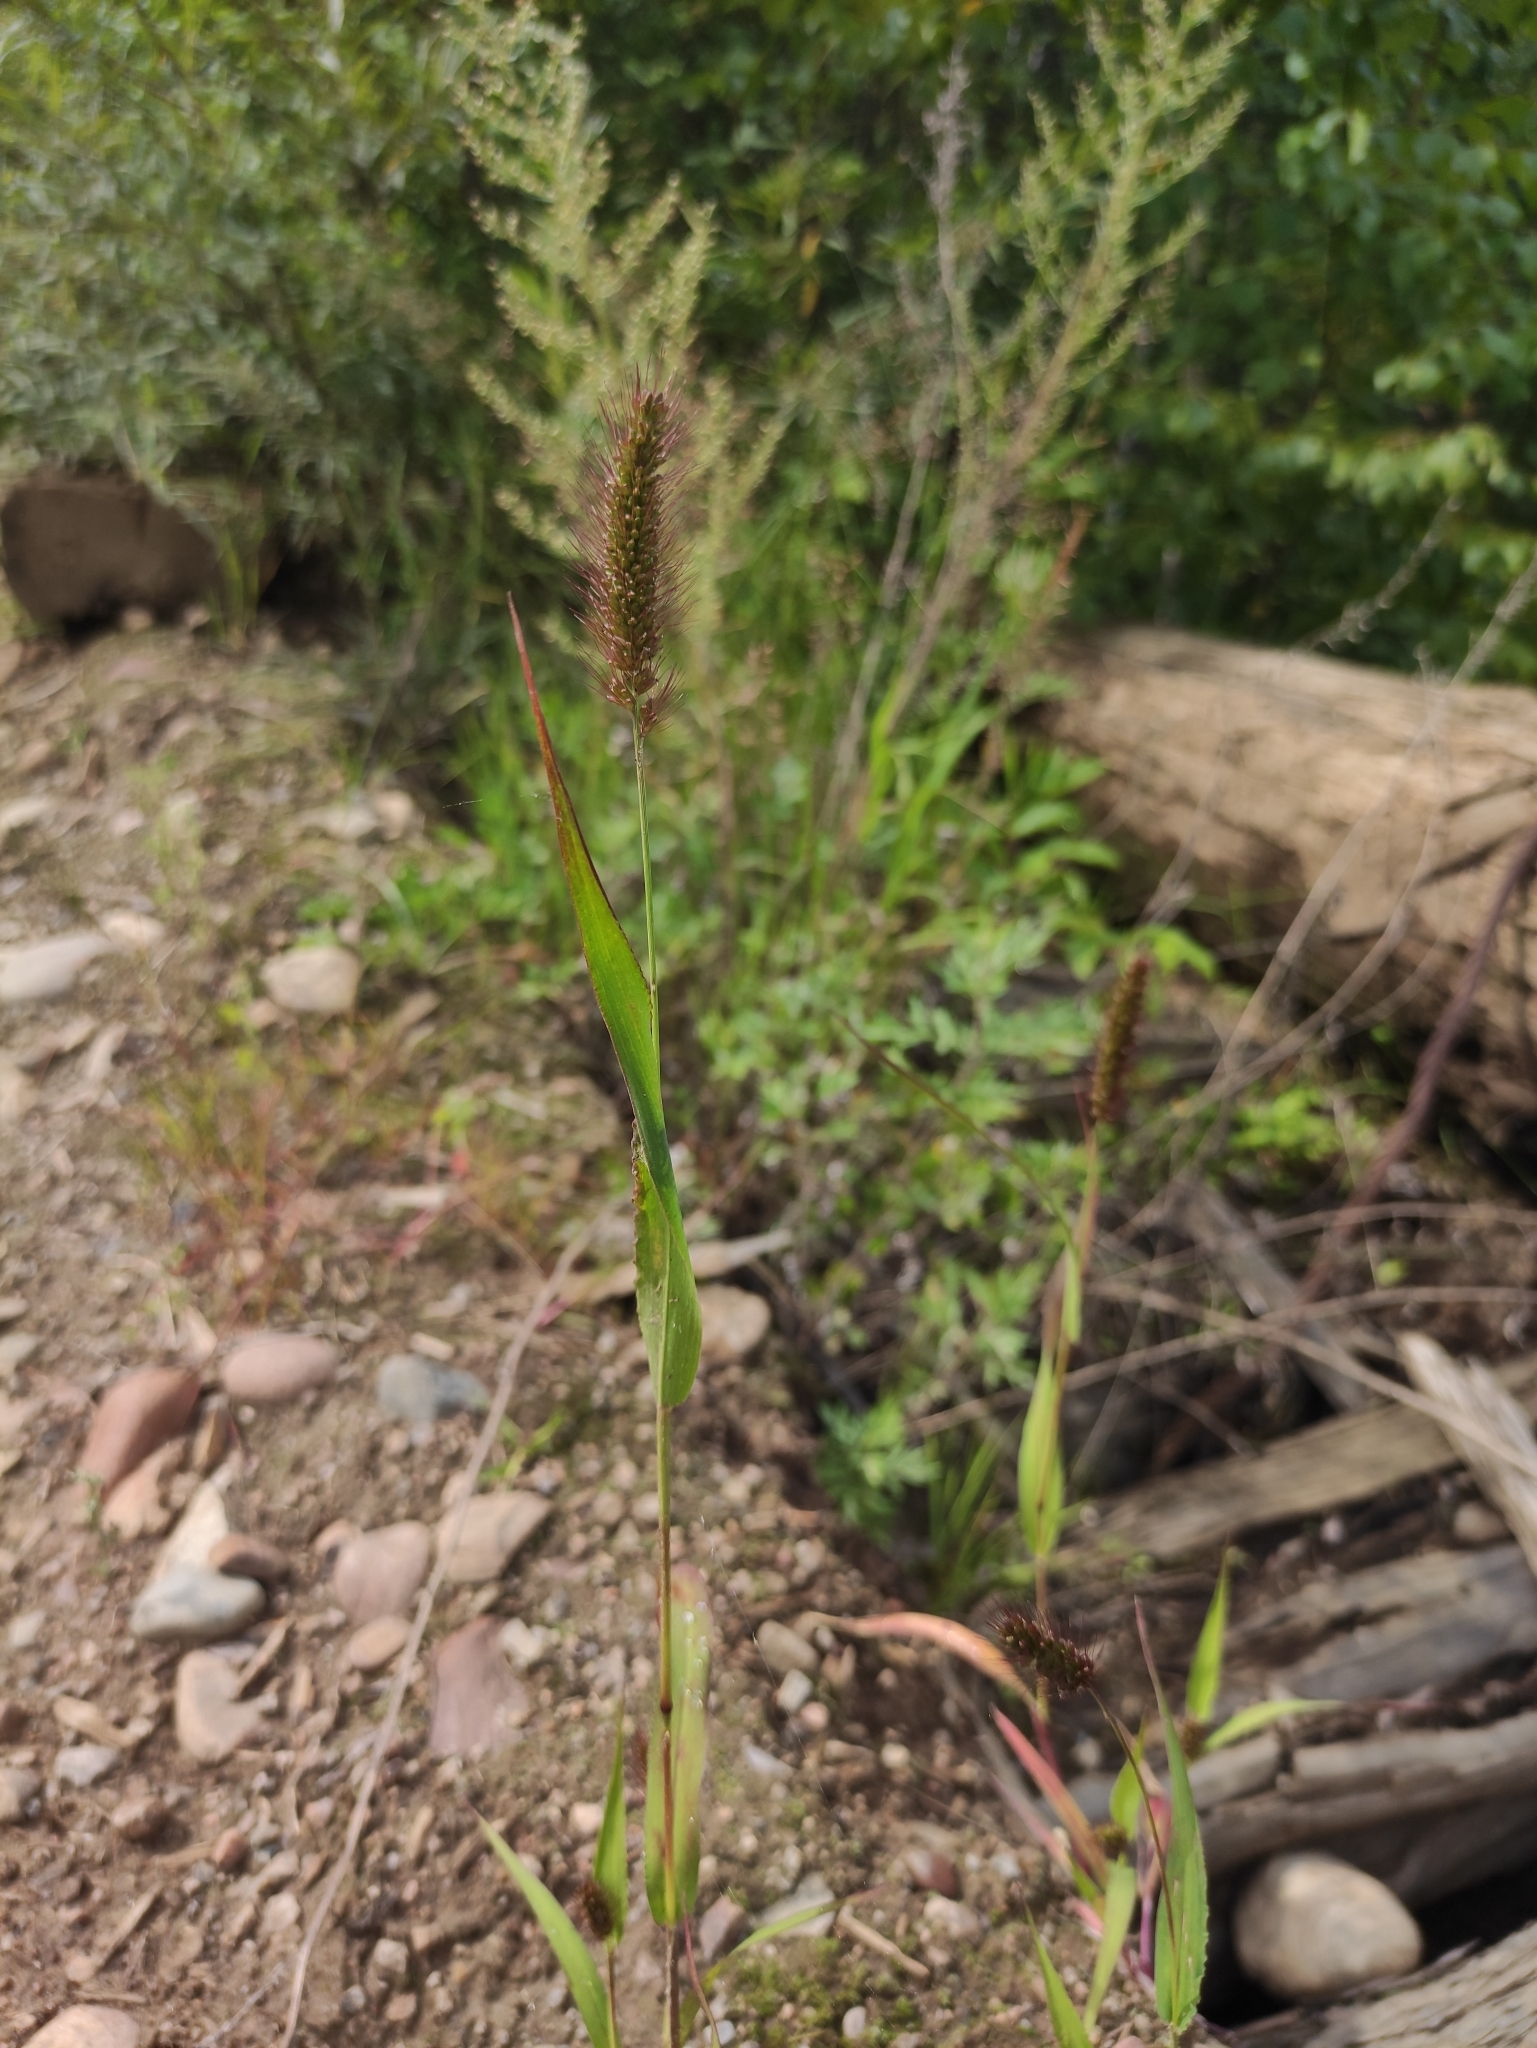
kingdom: Plantae
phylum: Tracheophyta
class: Liliopsida
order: Poales
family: Poaceae
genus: Setaria
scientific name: Setaria viridis
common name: Green bristlegrass
